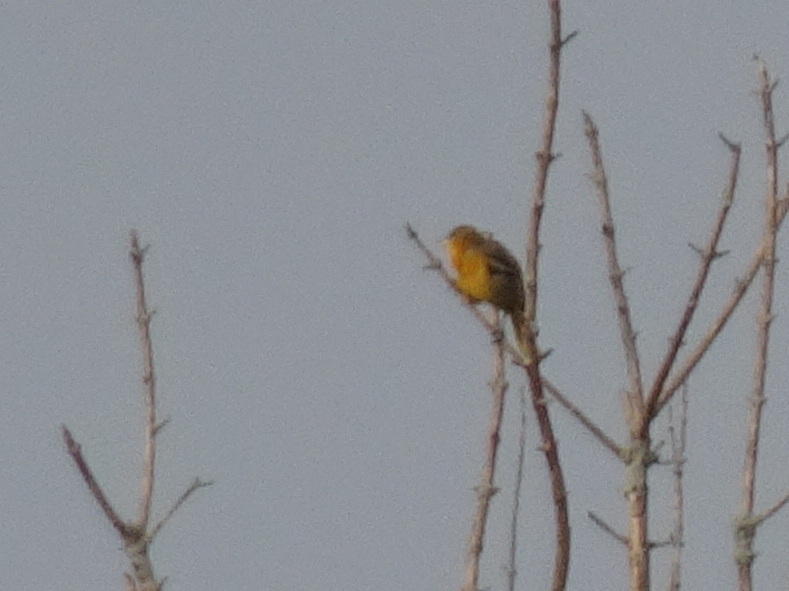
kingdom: Animalia
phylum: Chordata
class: Aves
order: Passeriformes
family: Icteridae
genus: Icterus
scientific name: Icterus galbula
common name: Baltimore oriole
